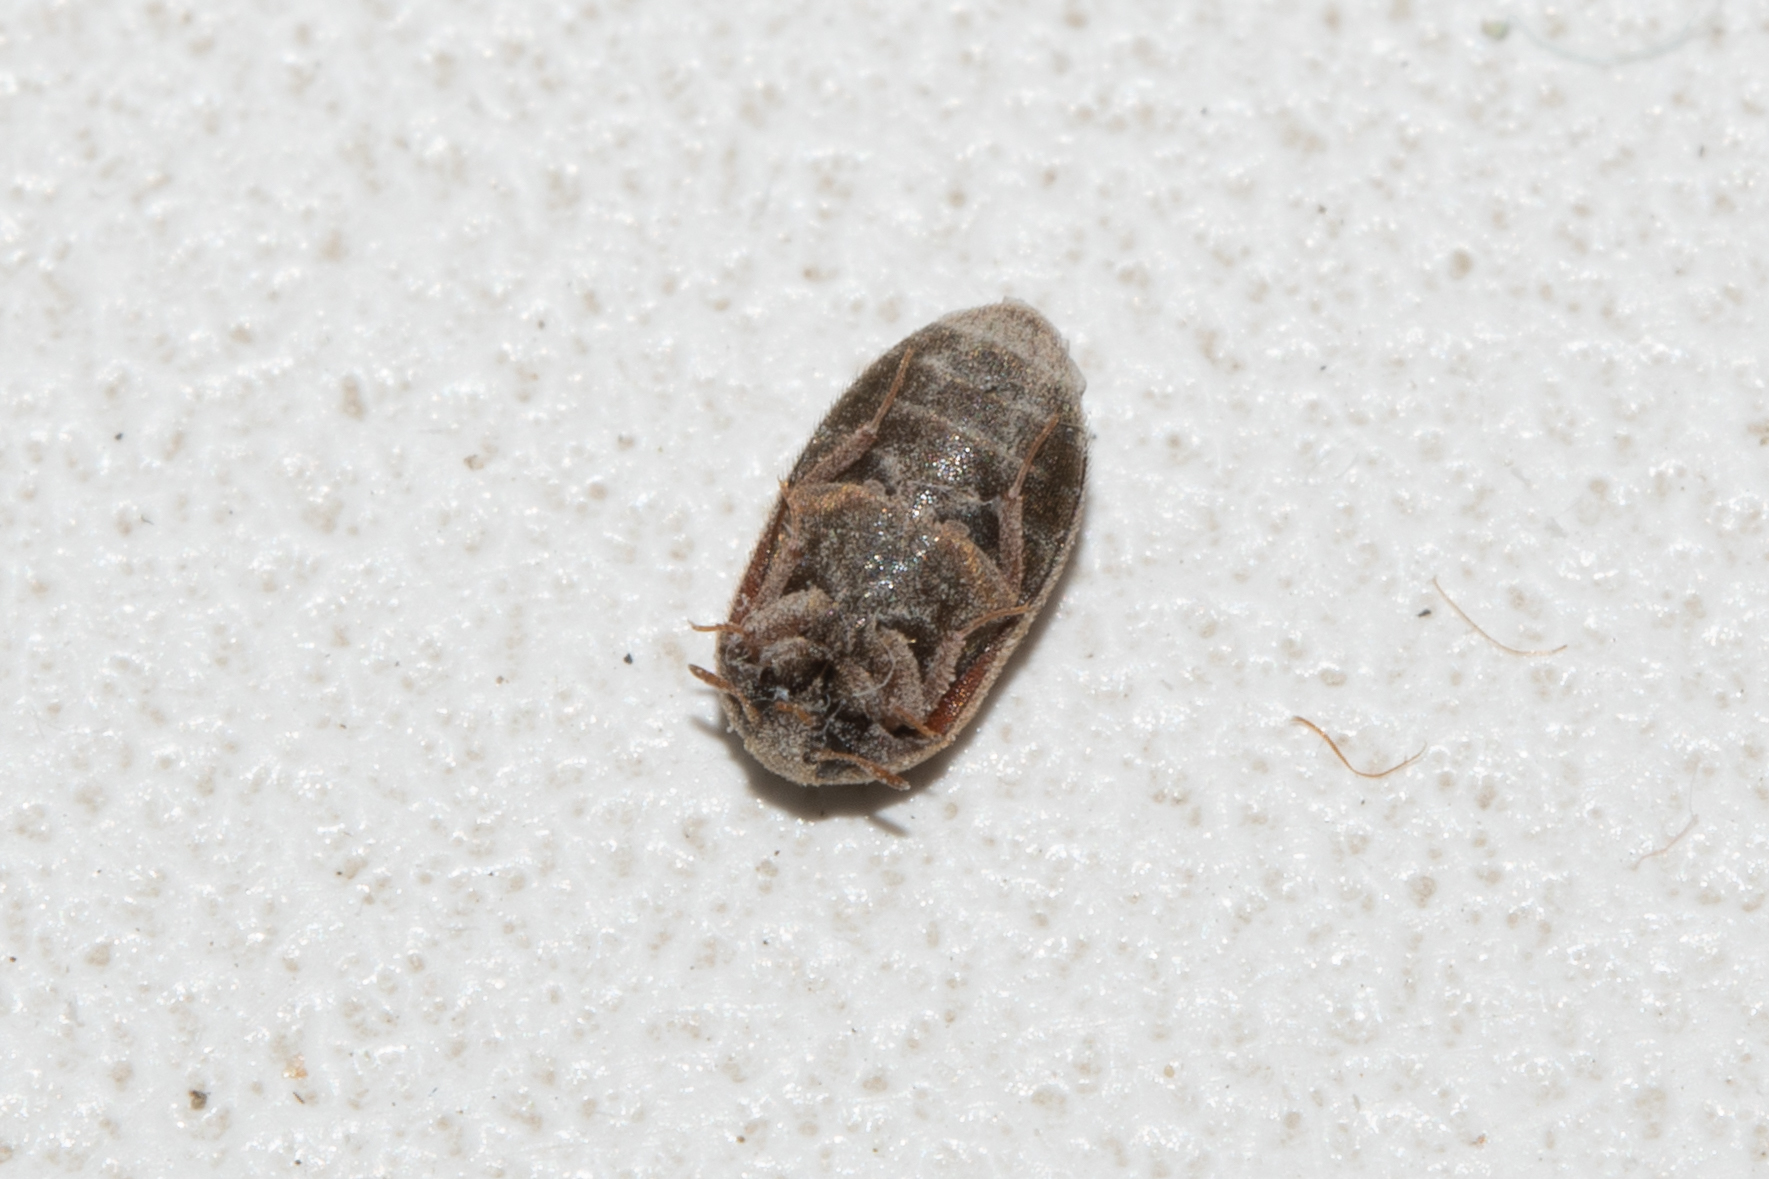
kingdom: Animalia
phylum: Arthropoda
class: Insecta
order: Coleoptera
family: Dermestidae
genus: Attagenus
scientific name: Attagenus smirnovi
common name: Brown carpet beetle
